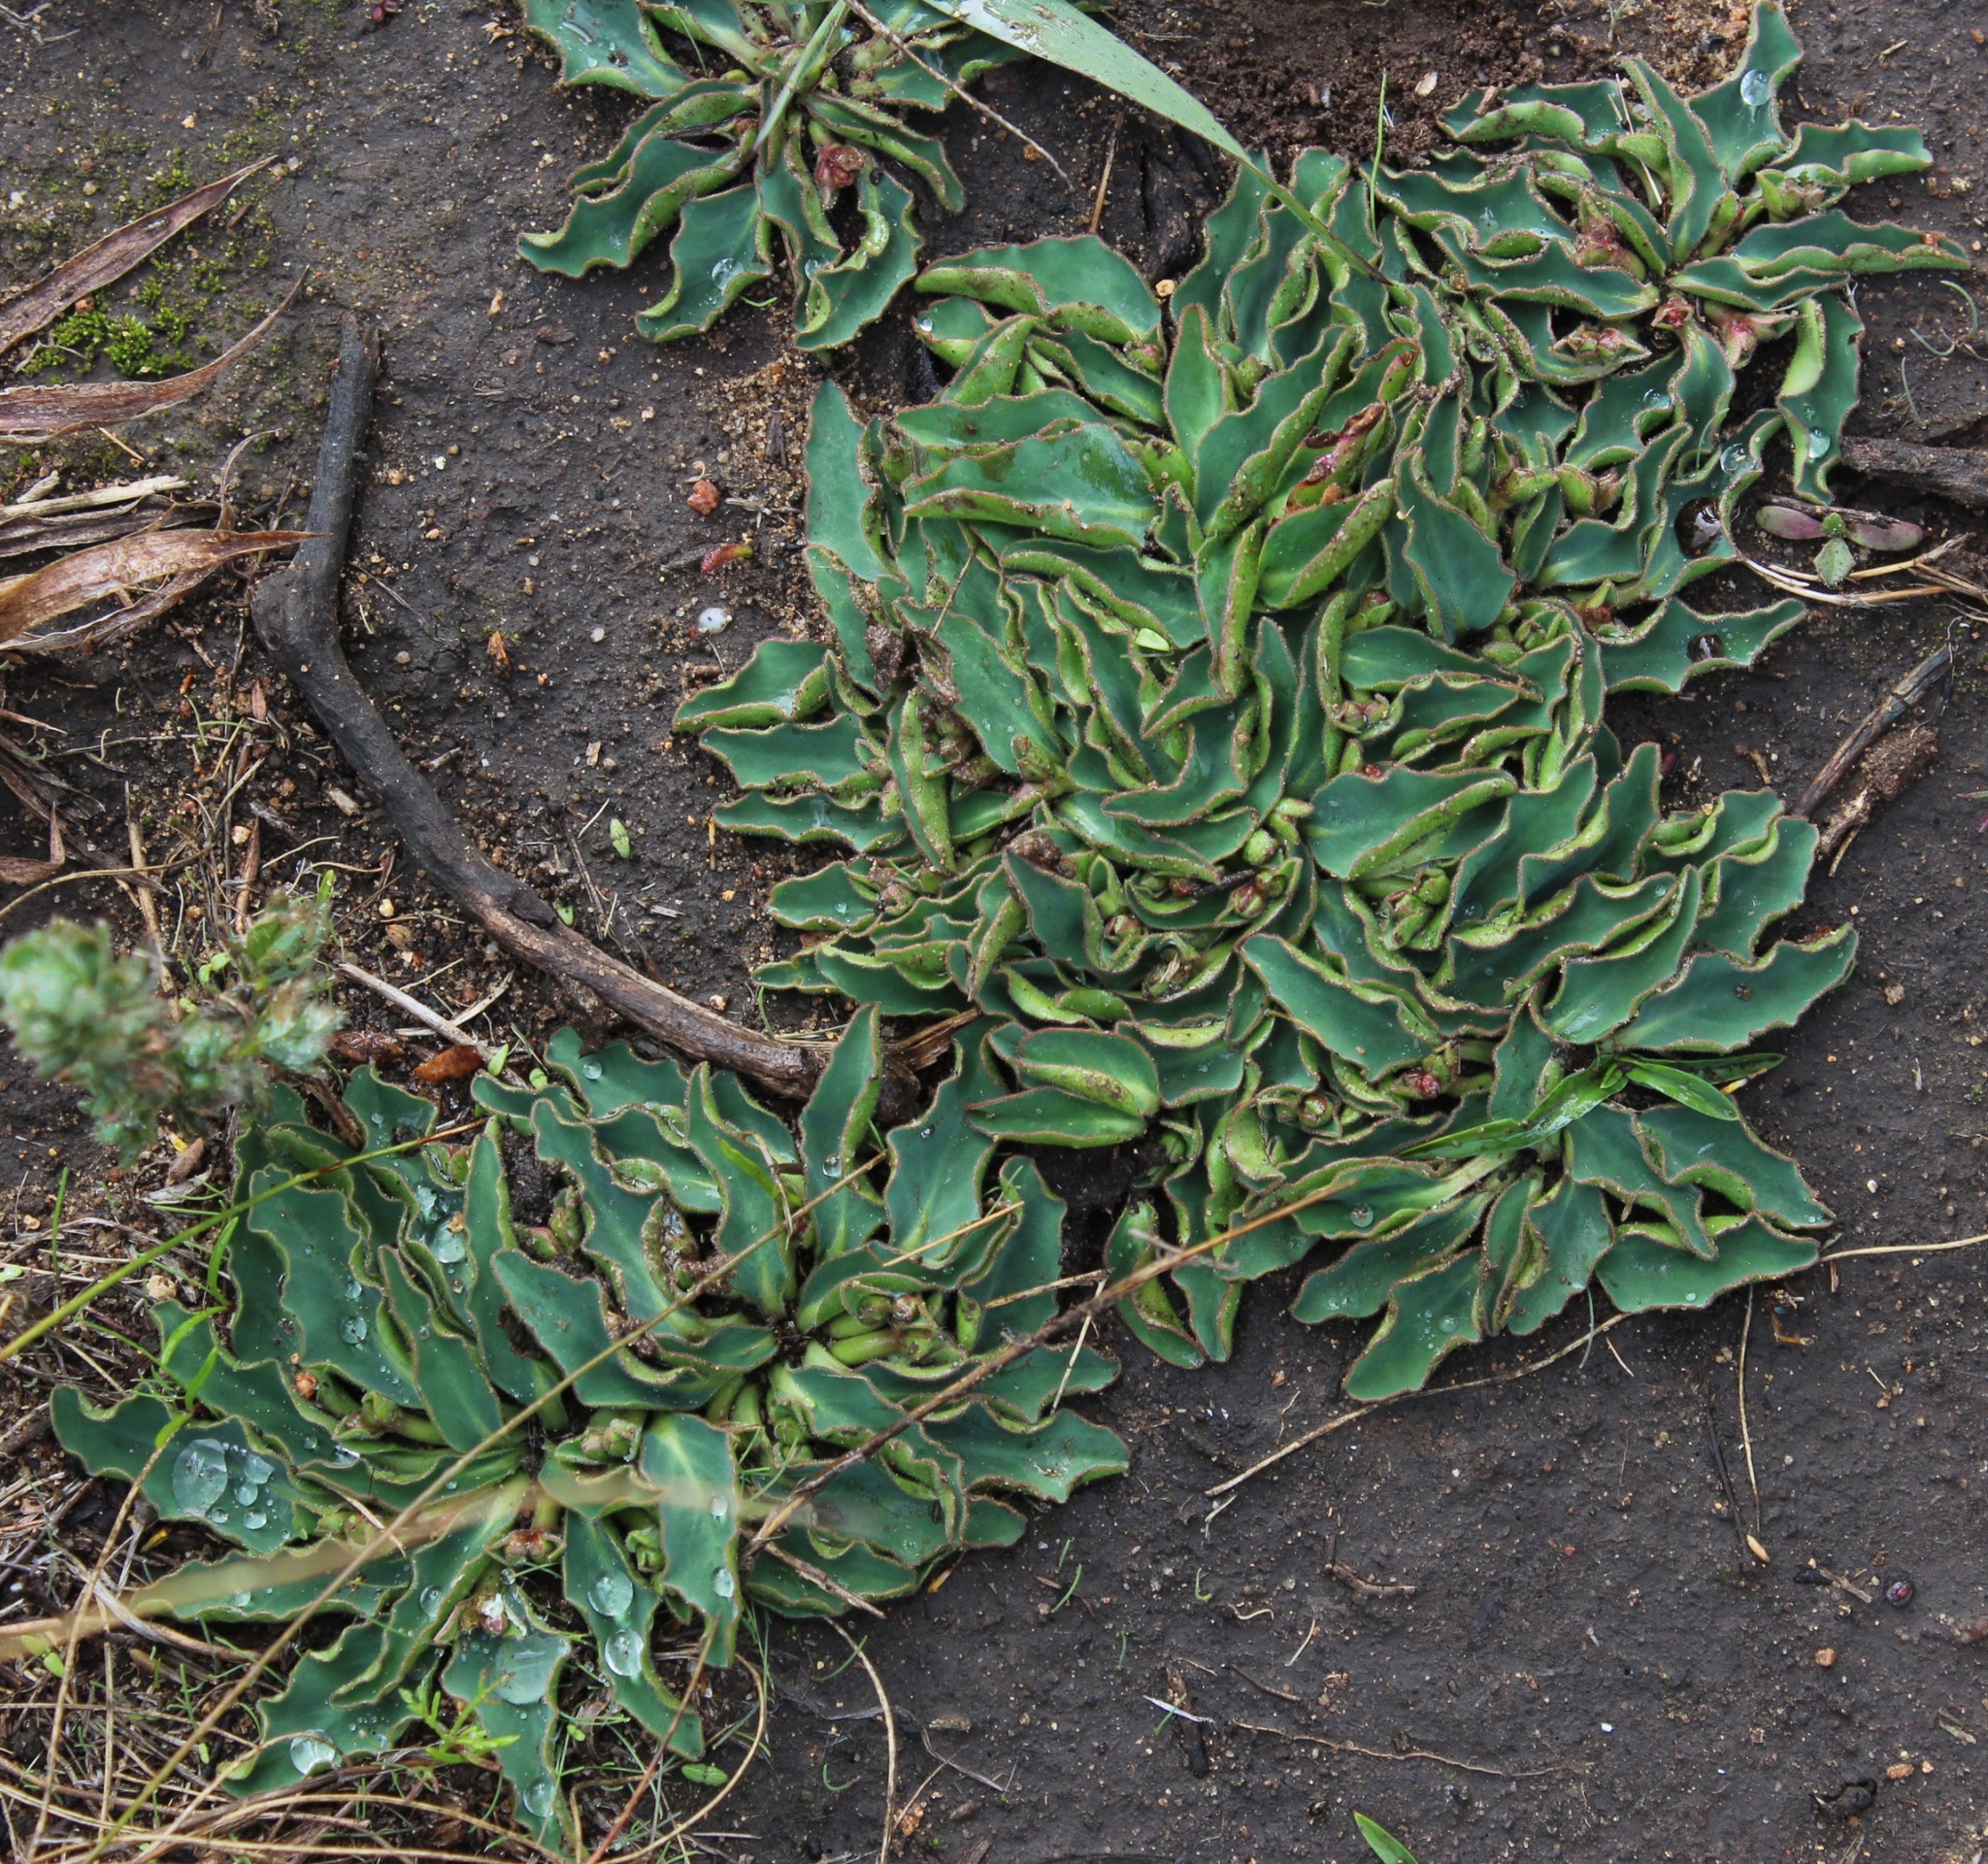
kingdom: Plantae
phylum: Tracheophyta
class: Magnoliopsida
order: Malpighiales
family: Euphorbiaceae
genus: Euphorbia
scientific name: Euphorbia tuberosa
